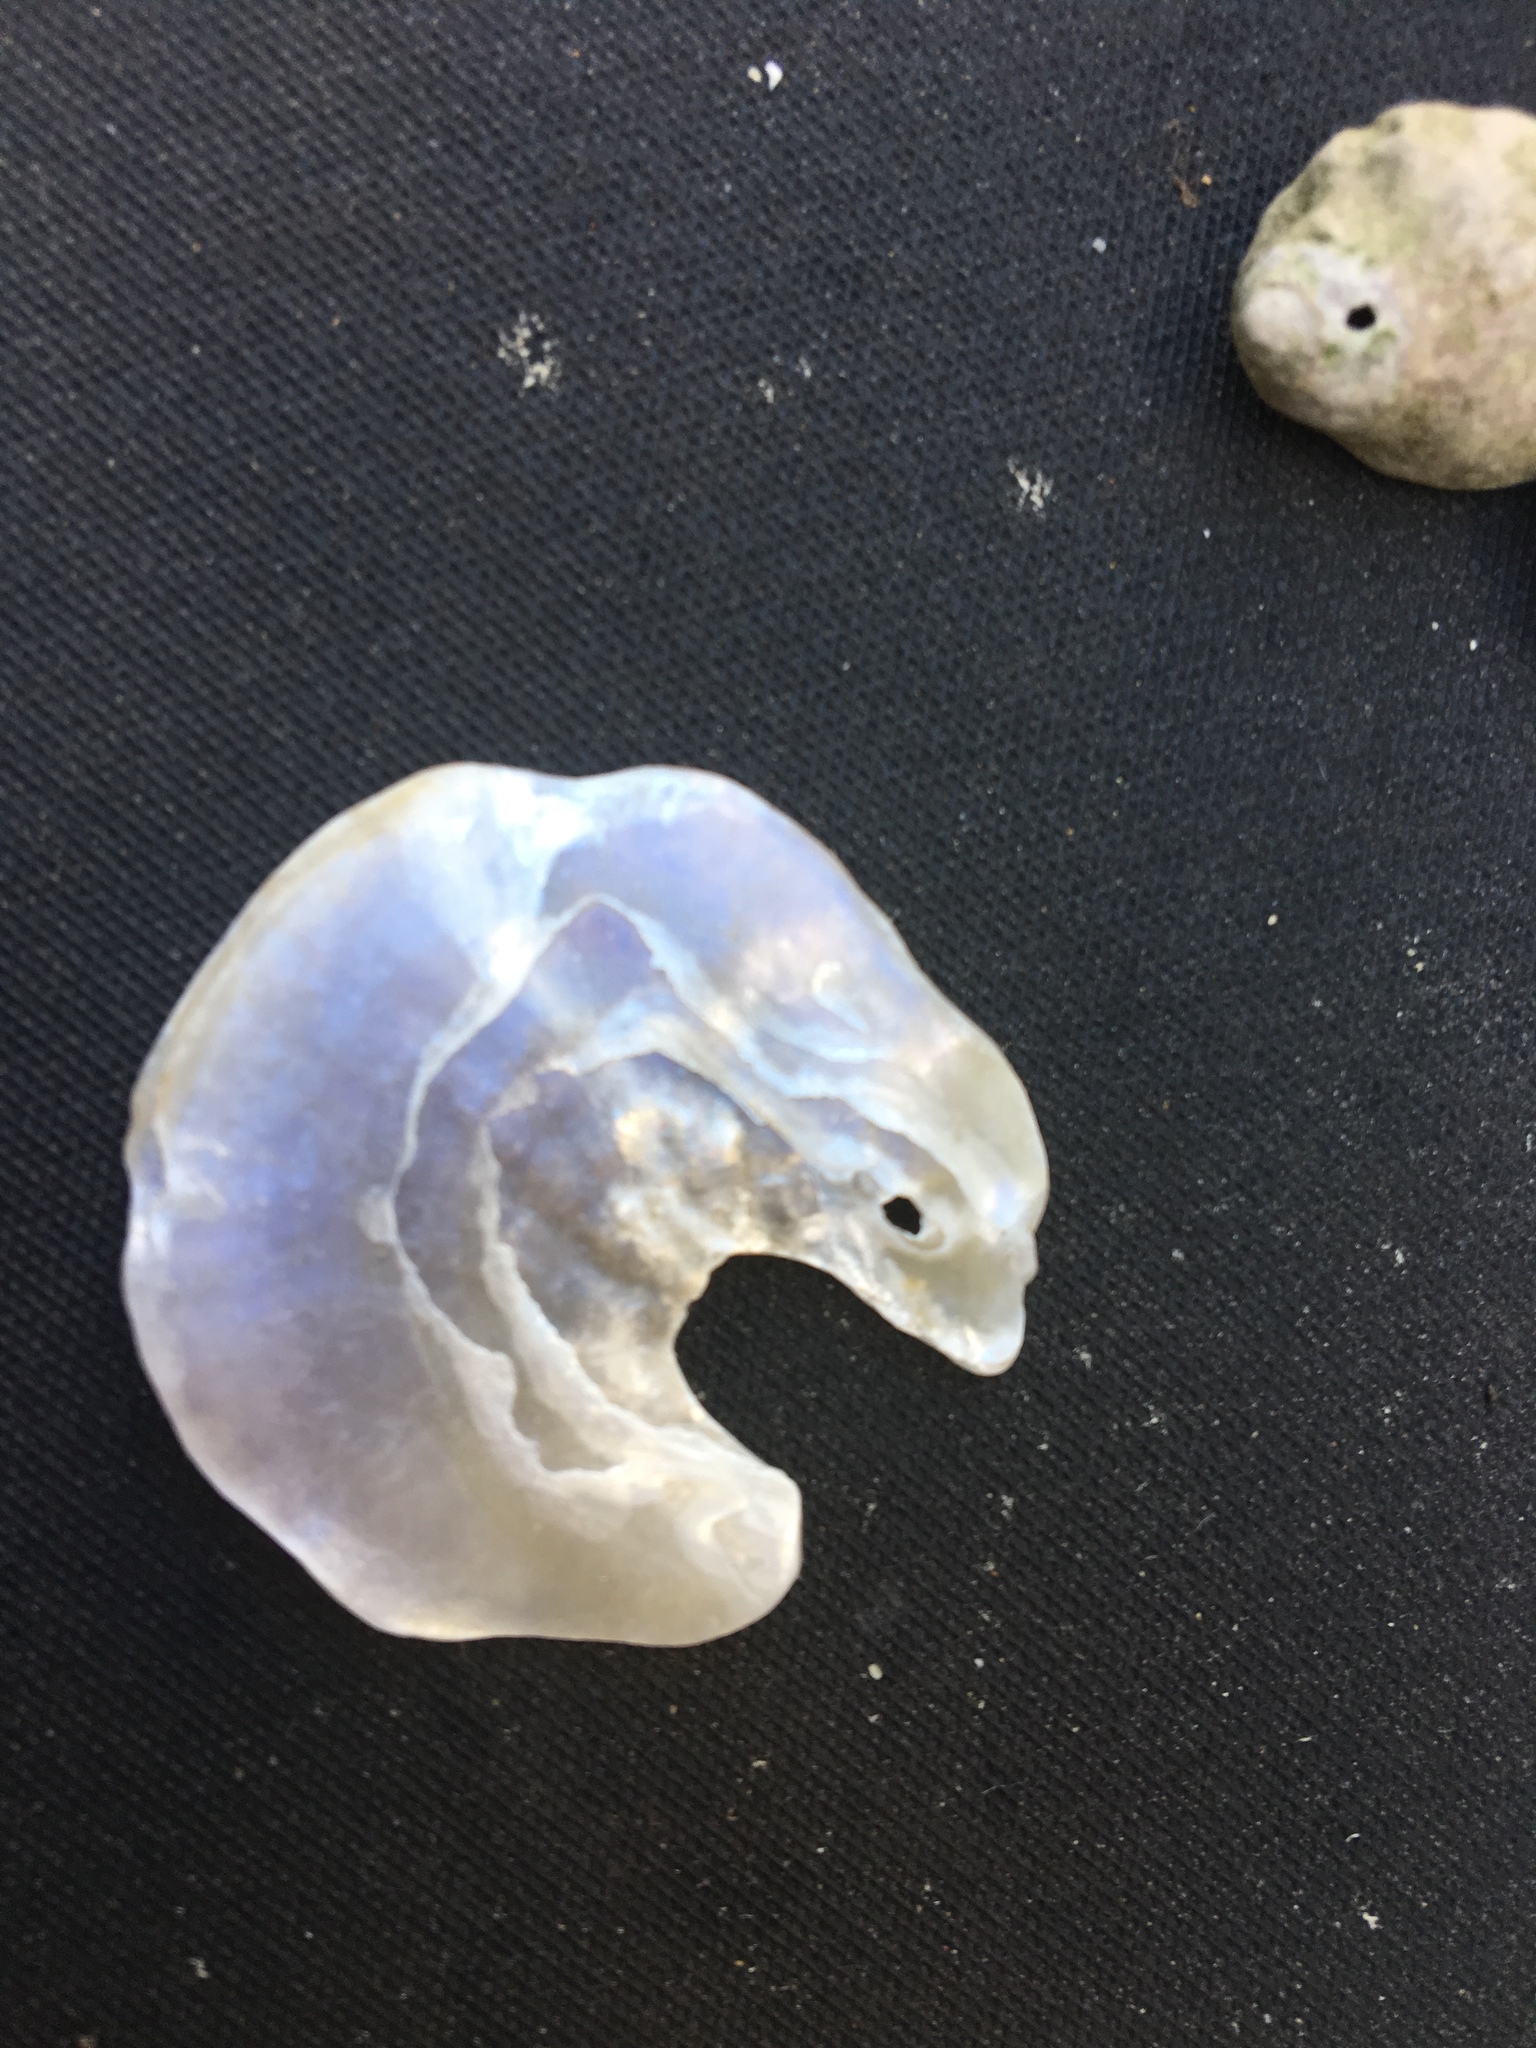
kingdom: Animalia
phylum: Mollusca
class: Bivalvia
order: Pectinida
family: Anomiidae
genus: Pododesmus
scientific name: Pododesmus macrochisma
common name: Alaska jingle
